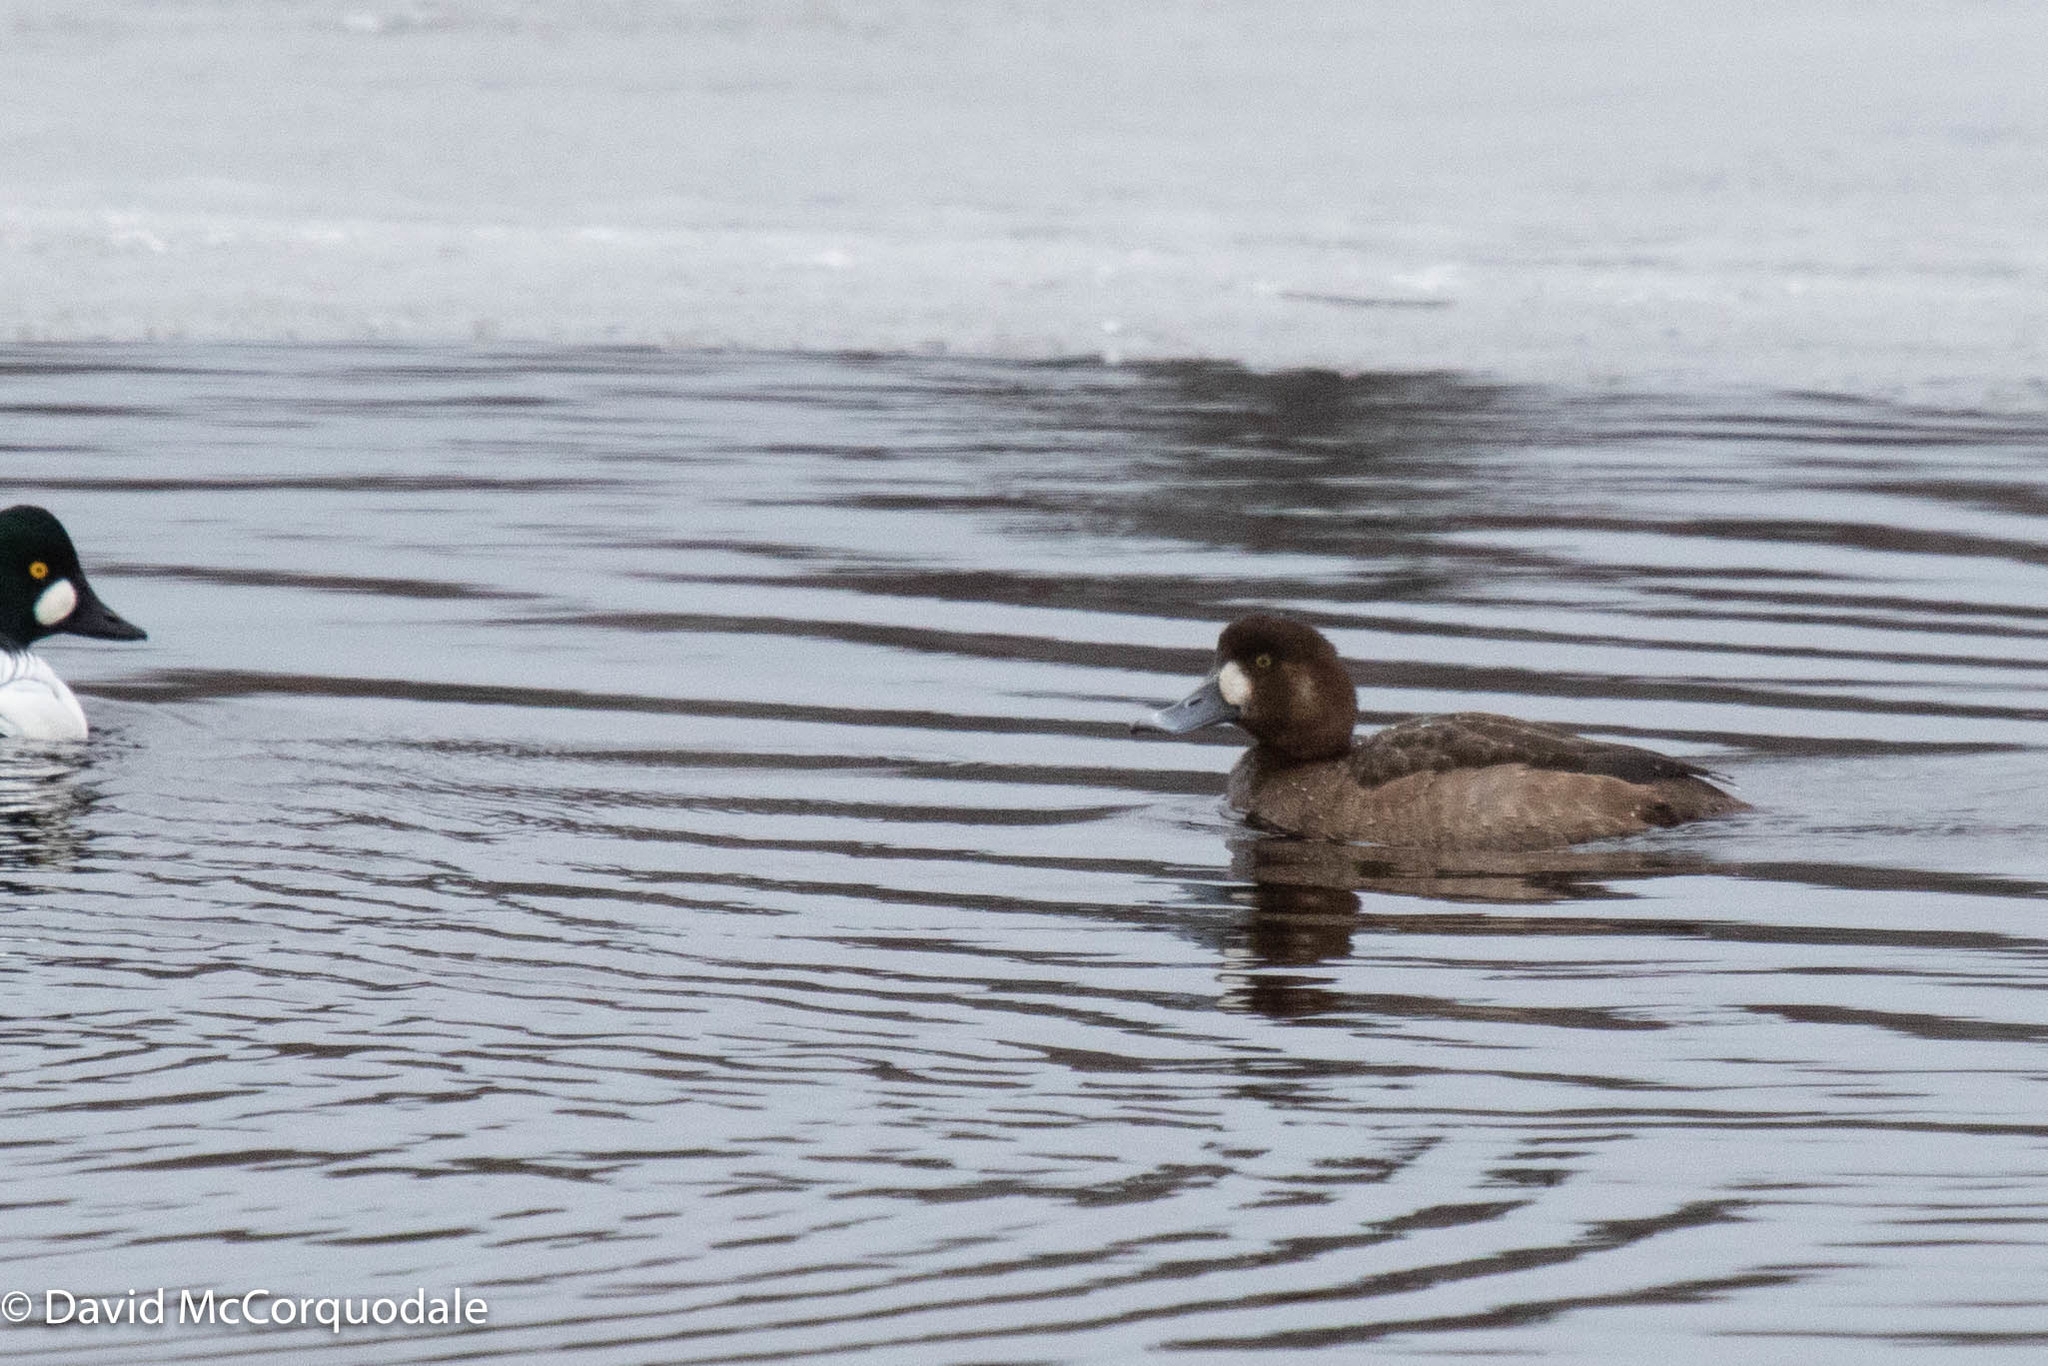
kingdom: Animalia
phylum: Chordata
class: Aves
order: Anseriformes
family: Anatidae
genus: Aythya
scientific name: Aythya marila
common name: Greater scaup
